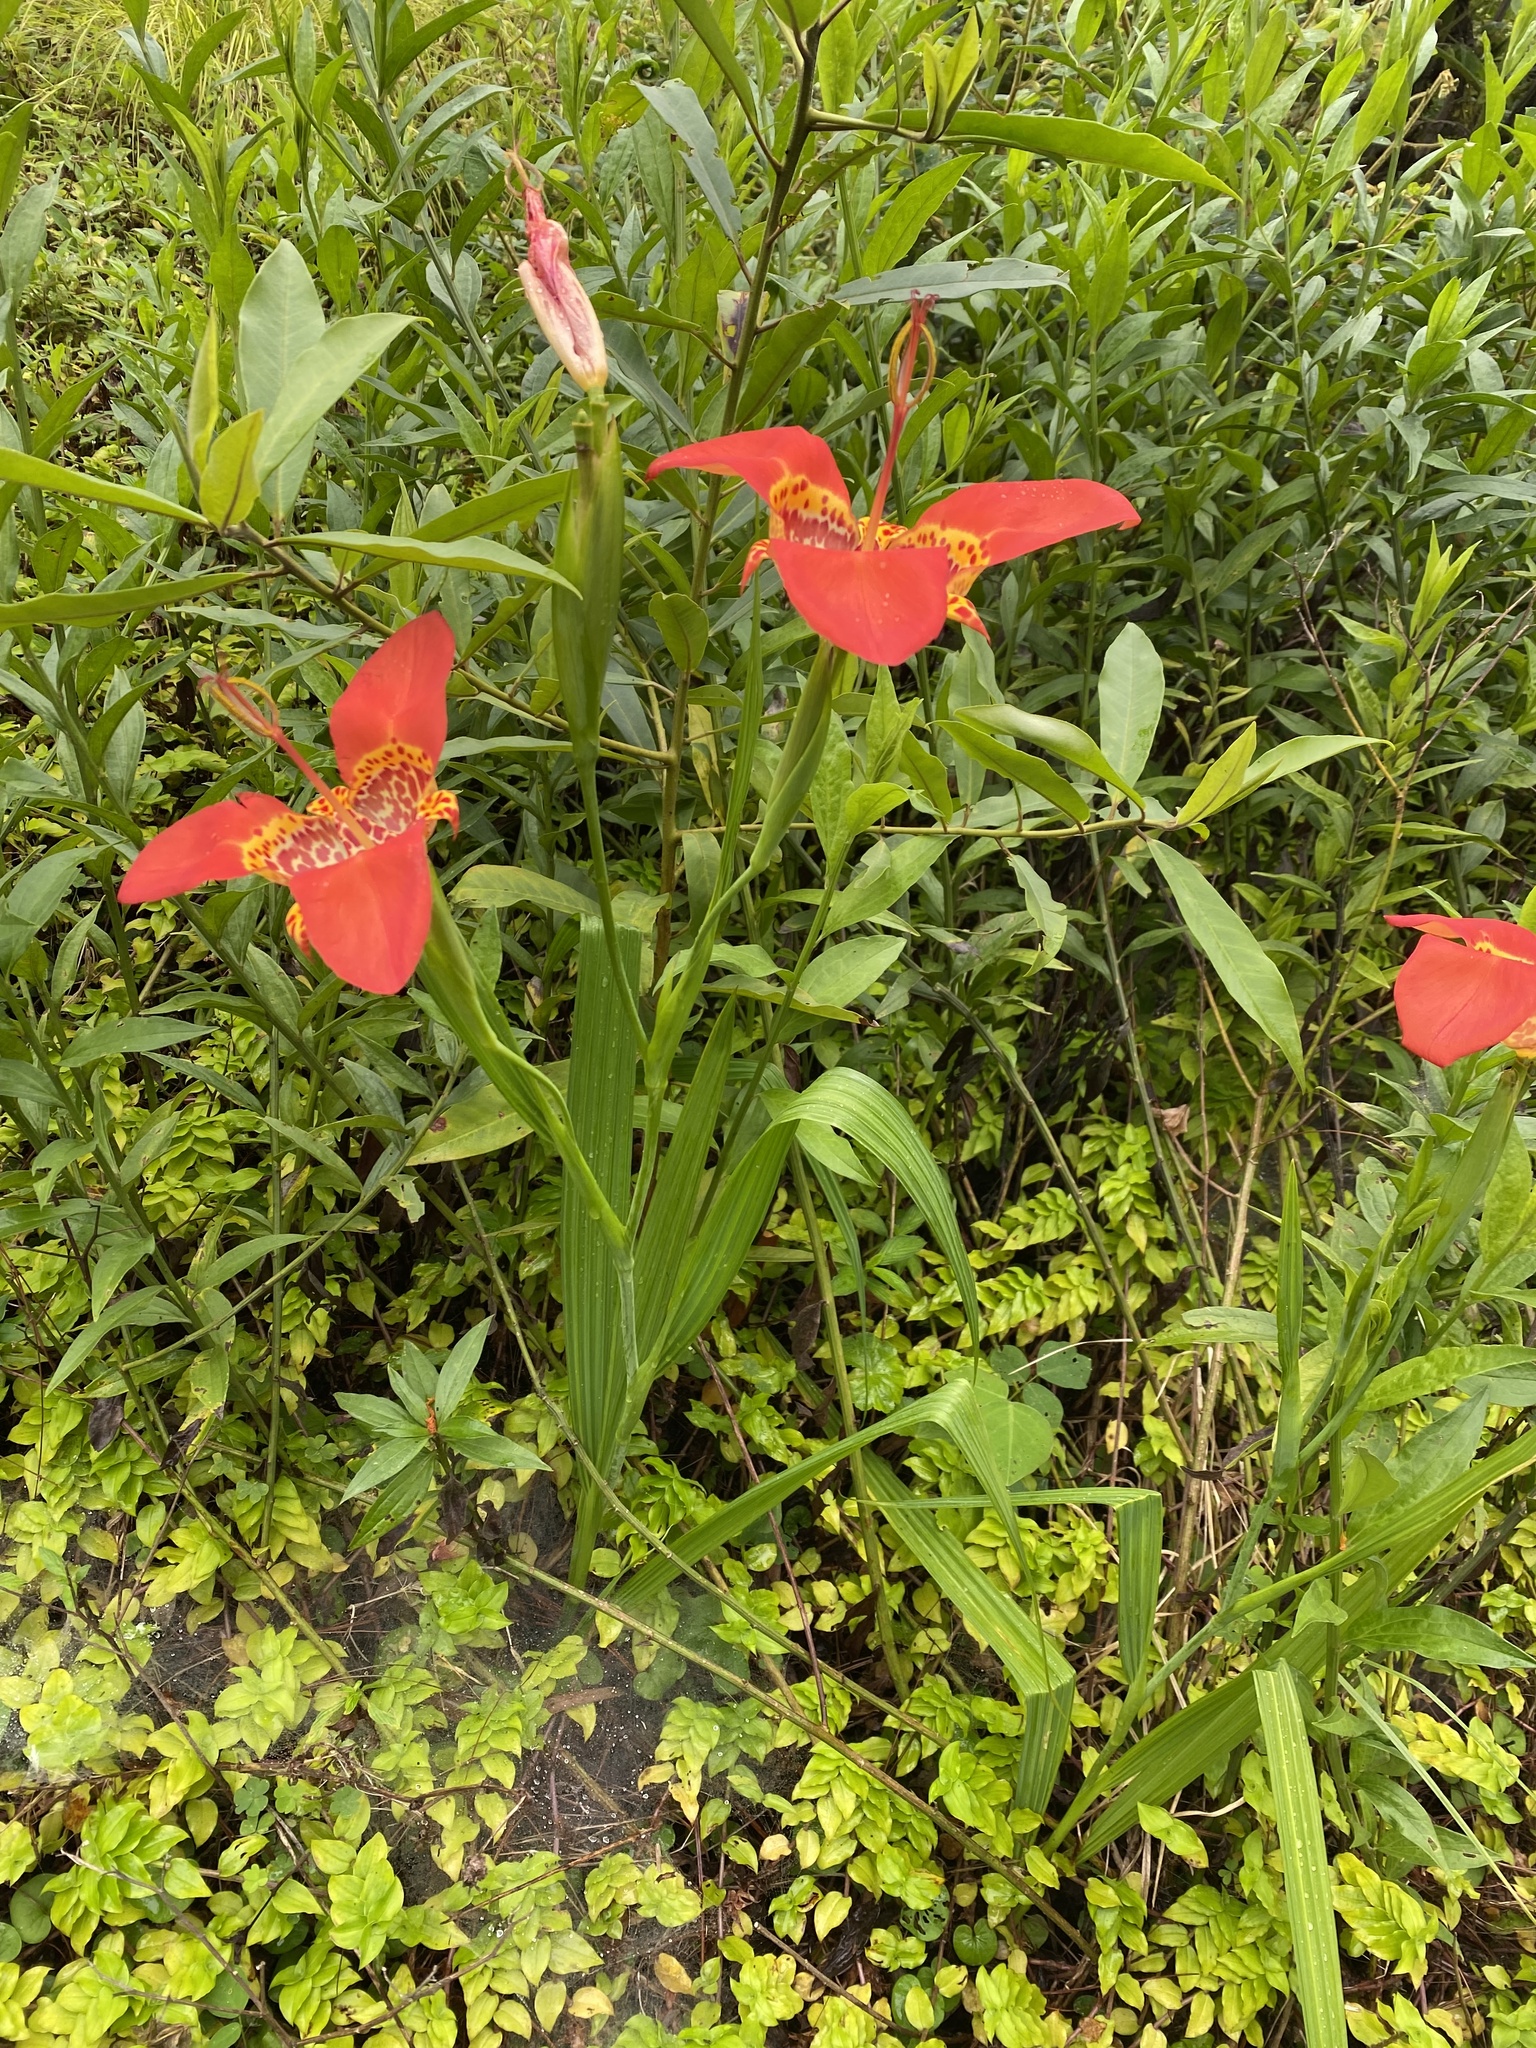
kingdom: Plantae
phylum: Tracheophyta
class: Liliopsida
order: Asparagales
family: Iridaceae
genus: Tigridia
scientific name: Tigridia pavonia
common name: Peacock-flower
